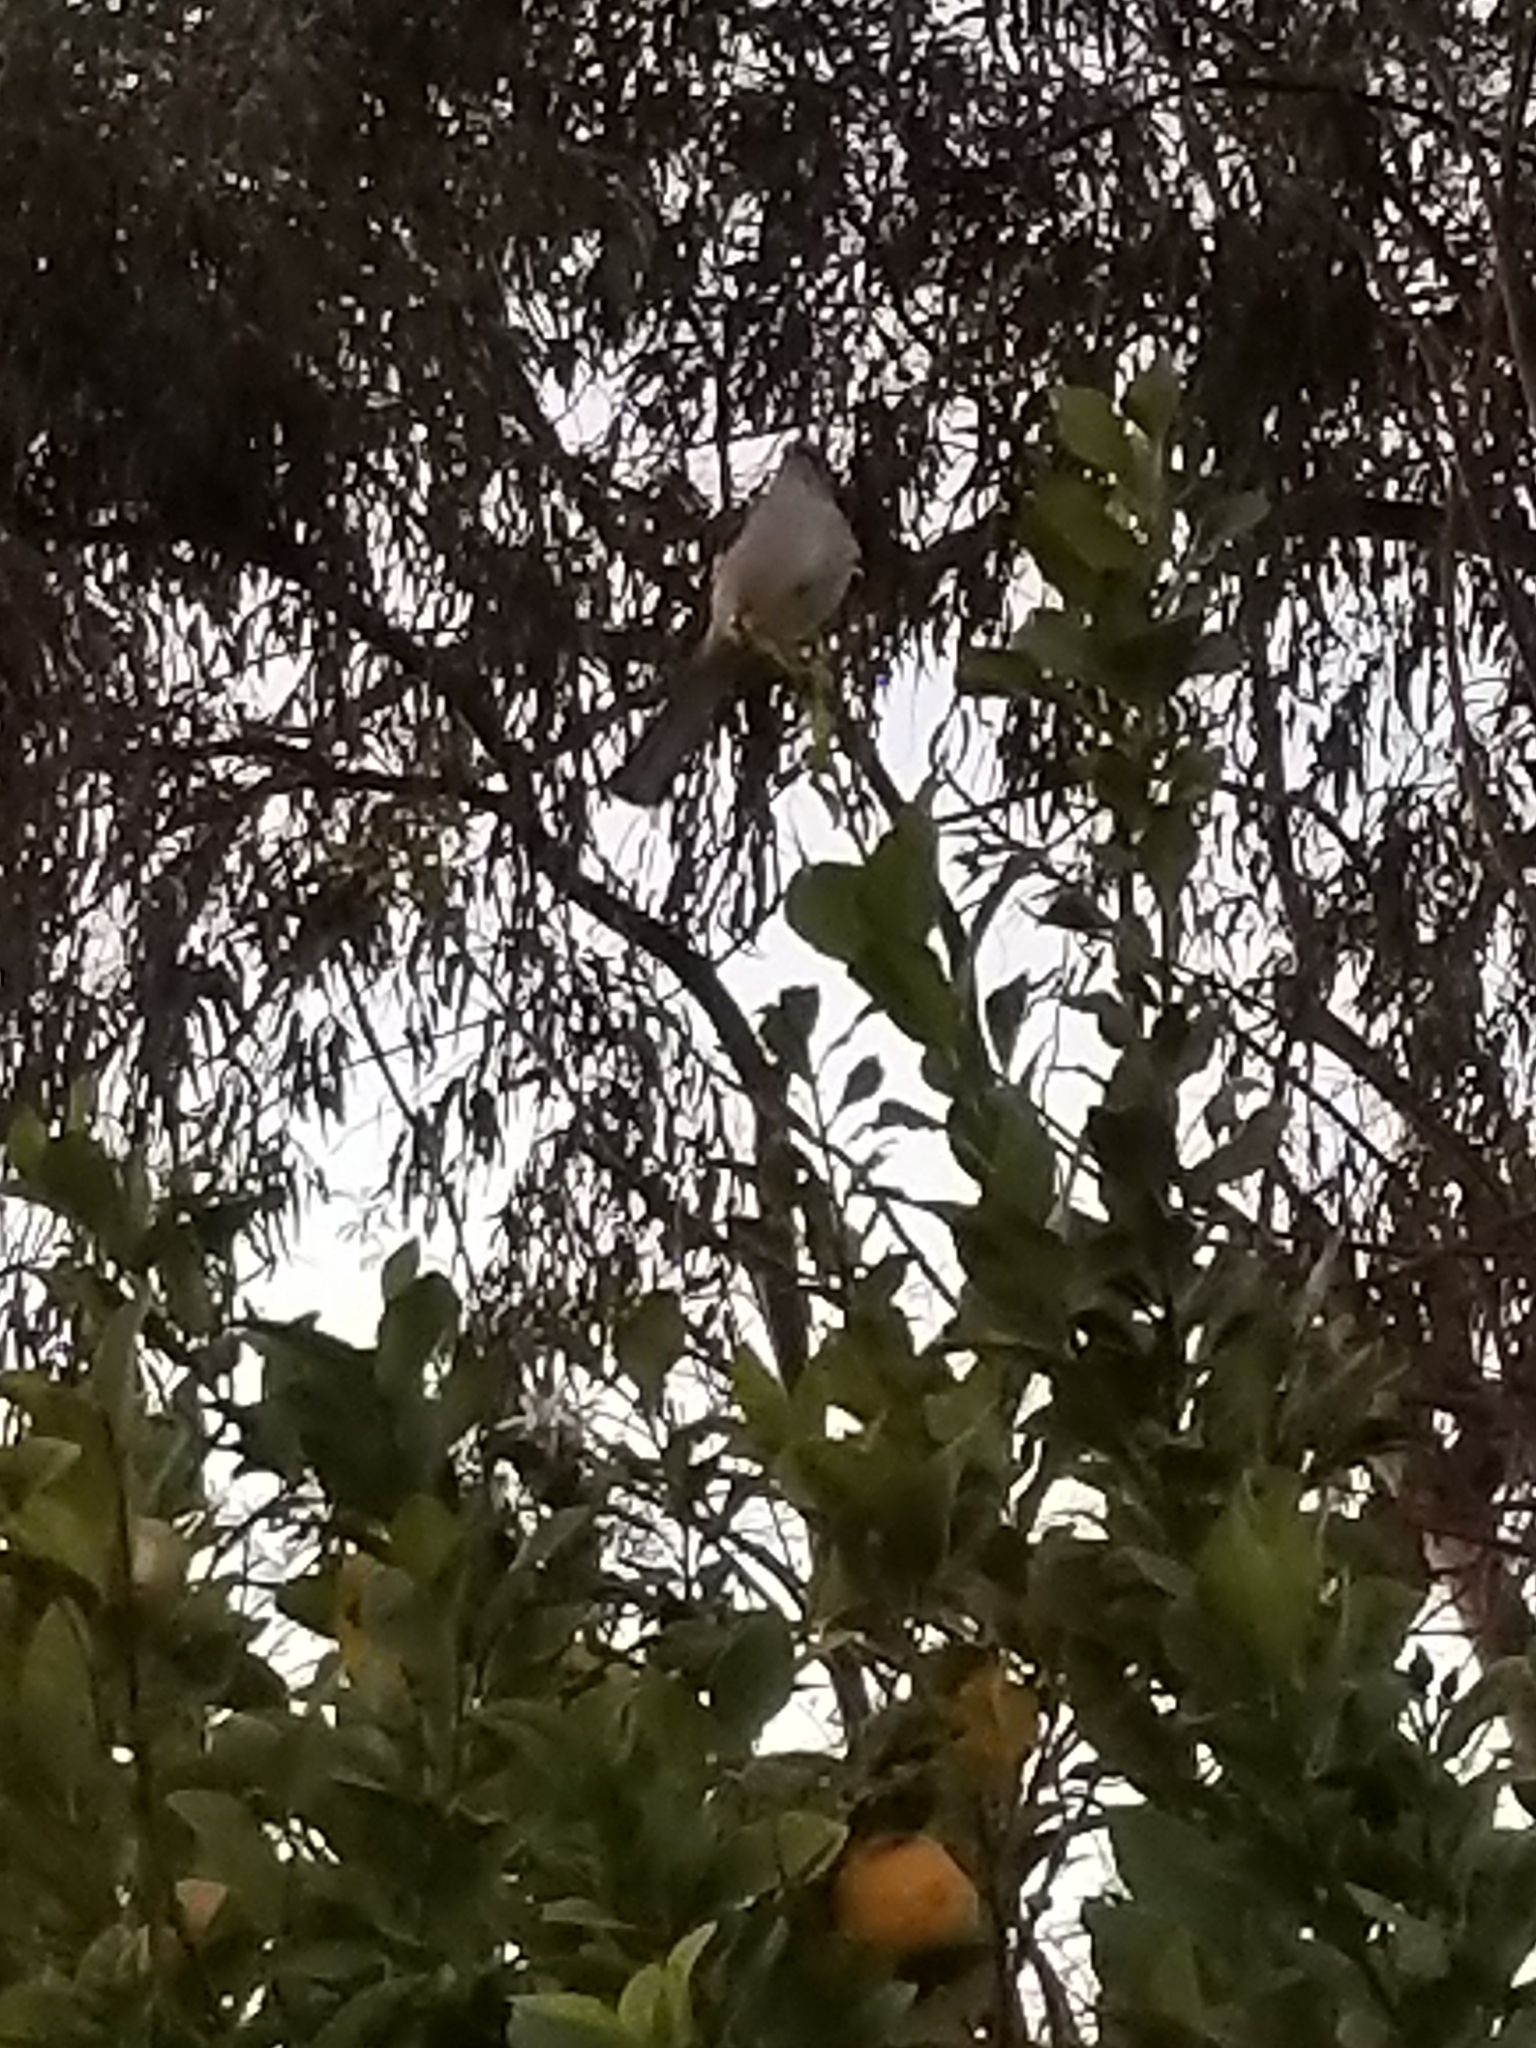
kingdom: Animalia
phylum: Chordata
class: Aves
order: Passeriformes
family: Mimidae
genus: Mimus
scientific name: Mimus polyglottos
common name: Northern mockingbird
